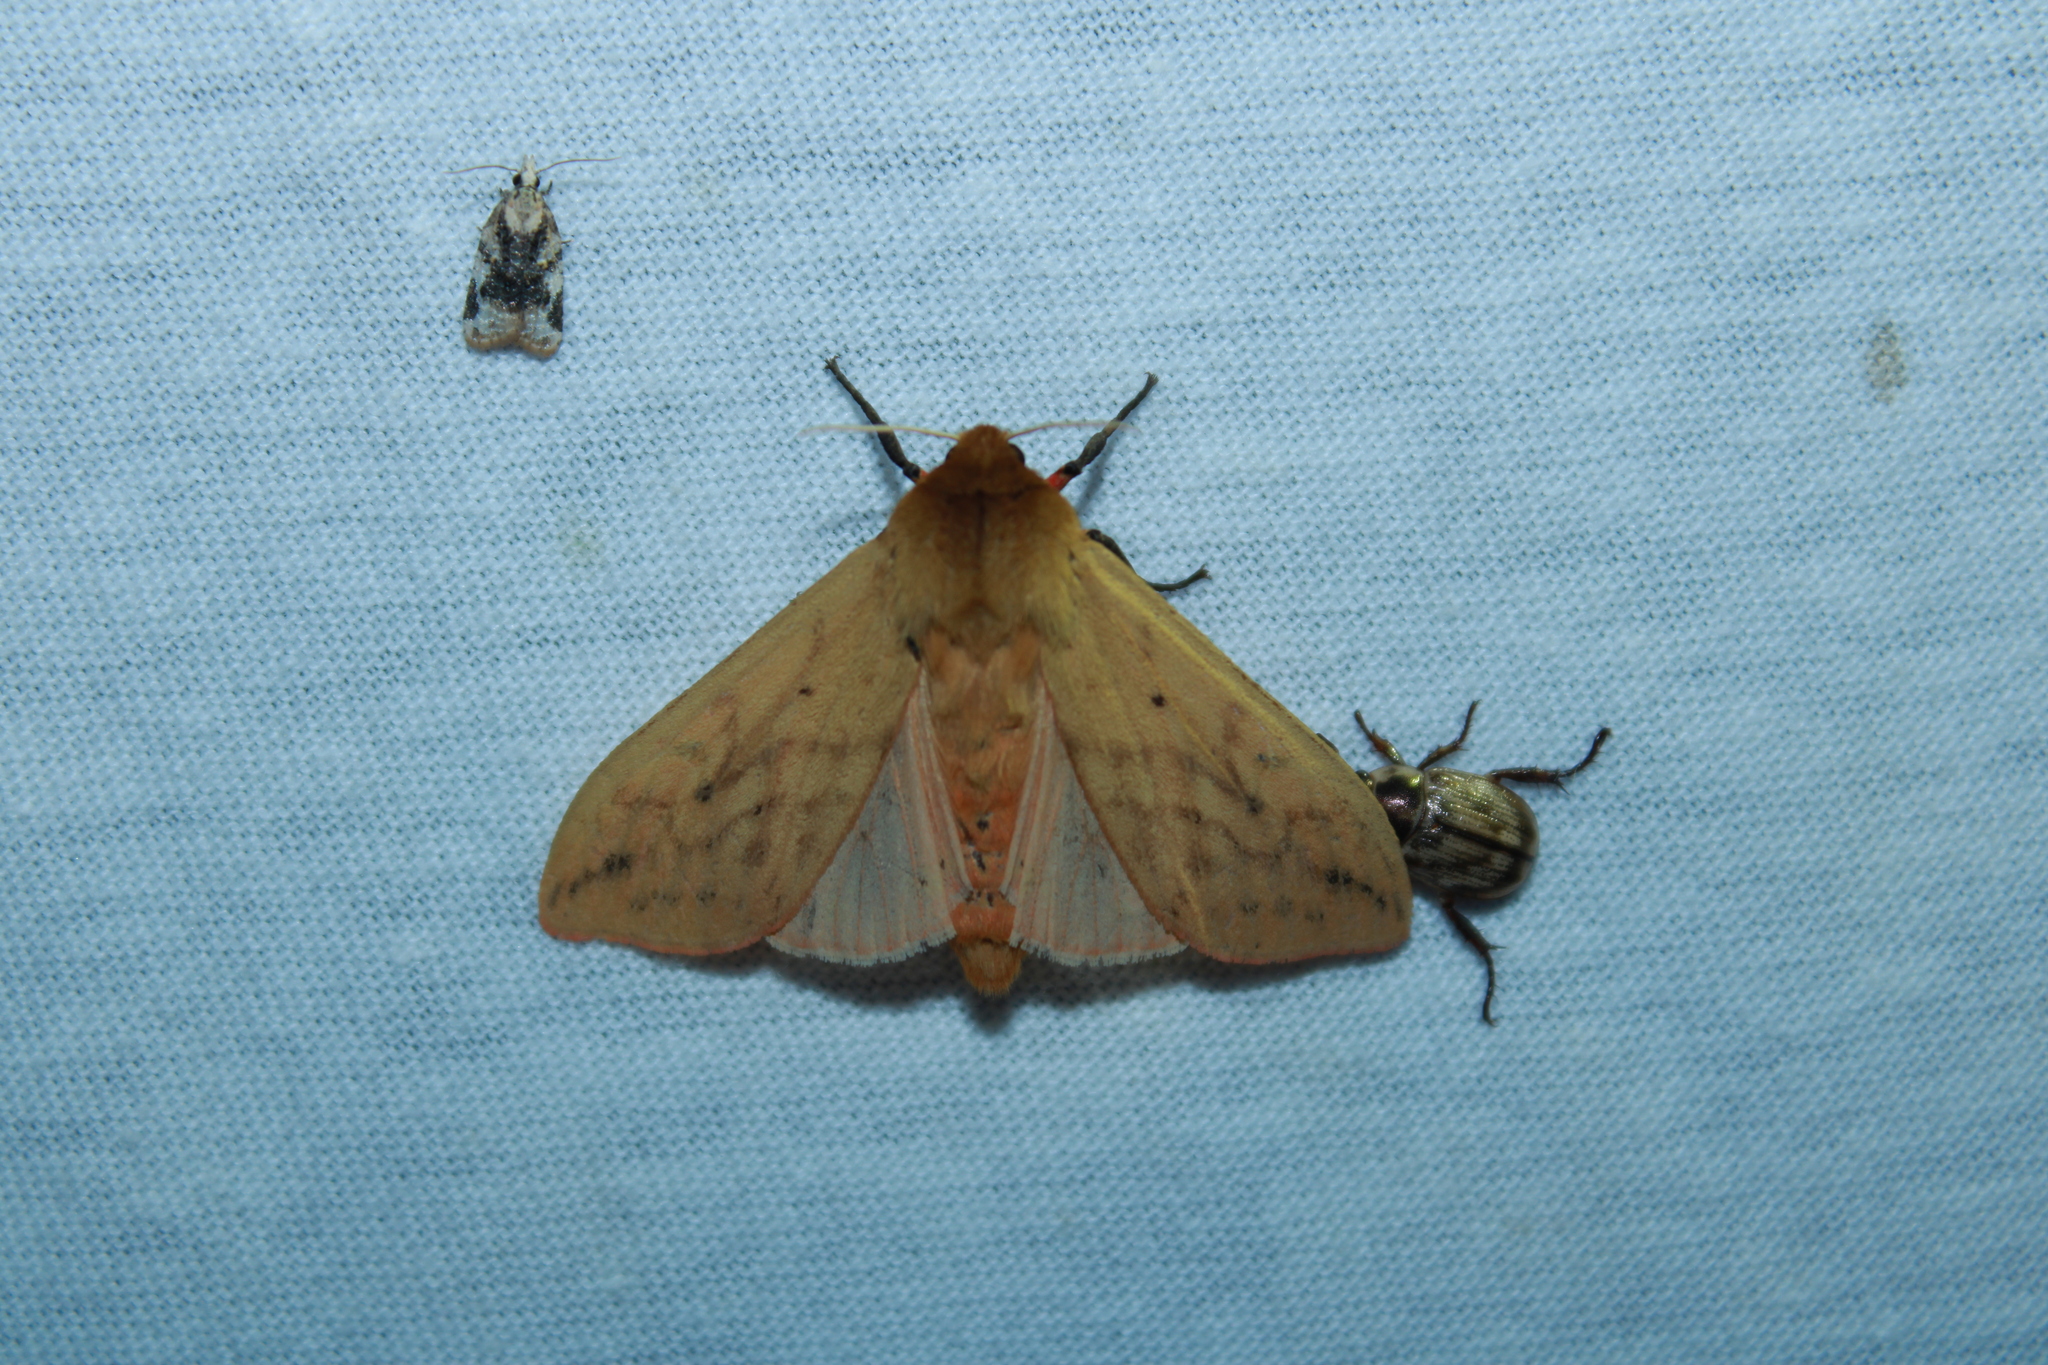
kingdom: Animalia
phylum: Arthropoda
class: Insecta
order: Lepidoptera
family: Erebidae
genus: Pyrrharctia
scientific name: Pyrrharctia isabella
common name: Isabella tiger moth
